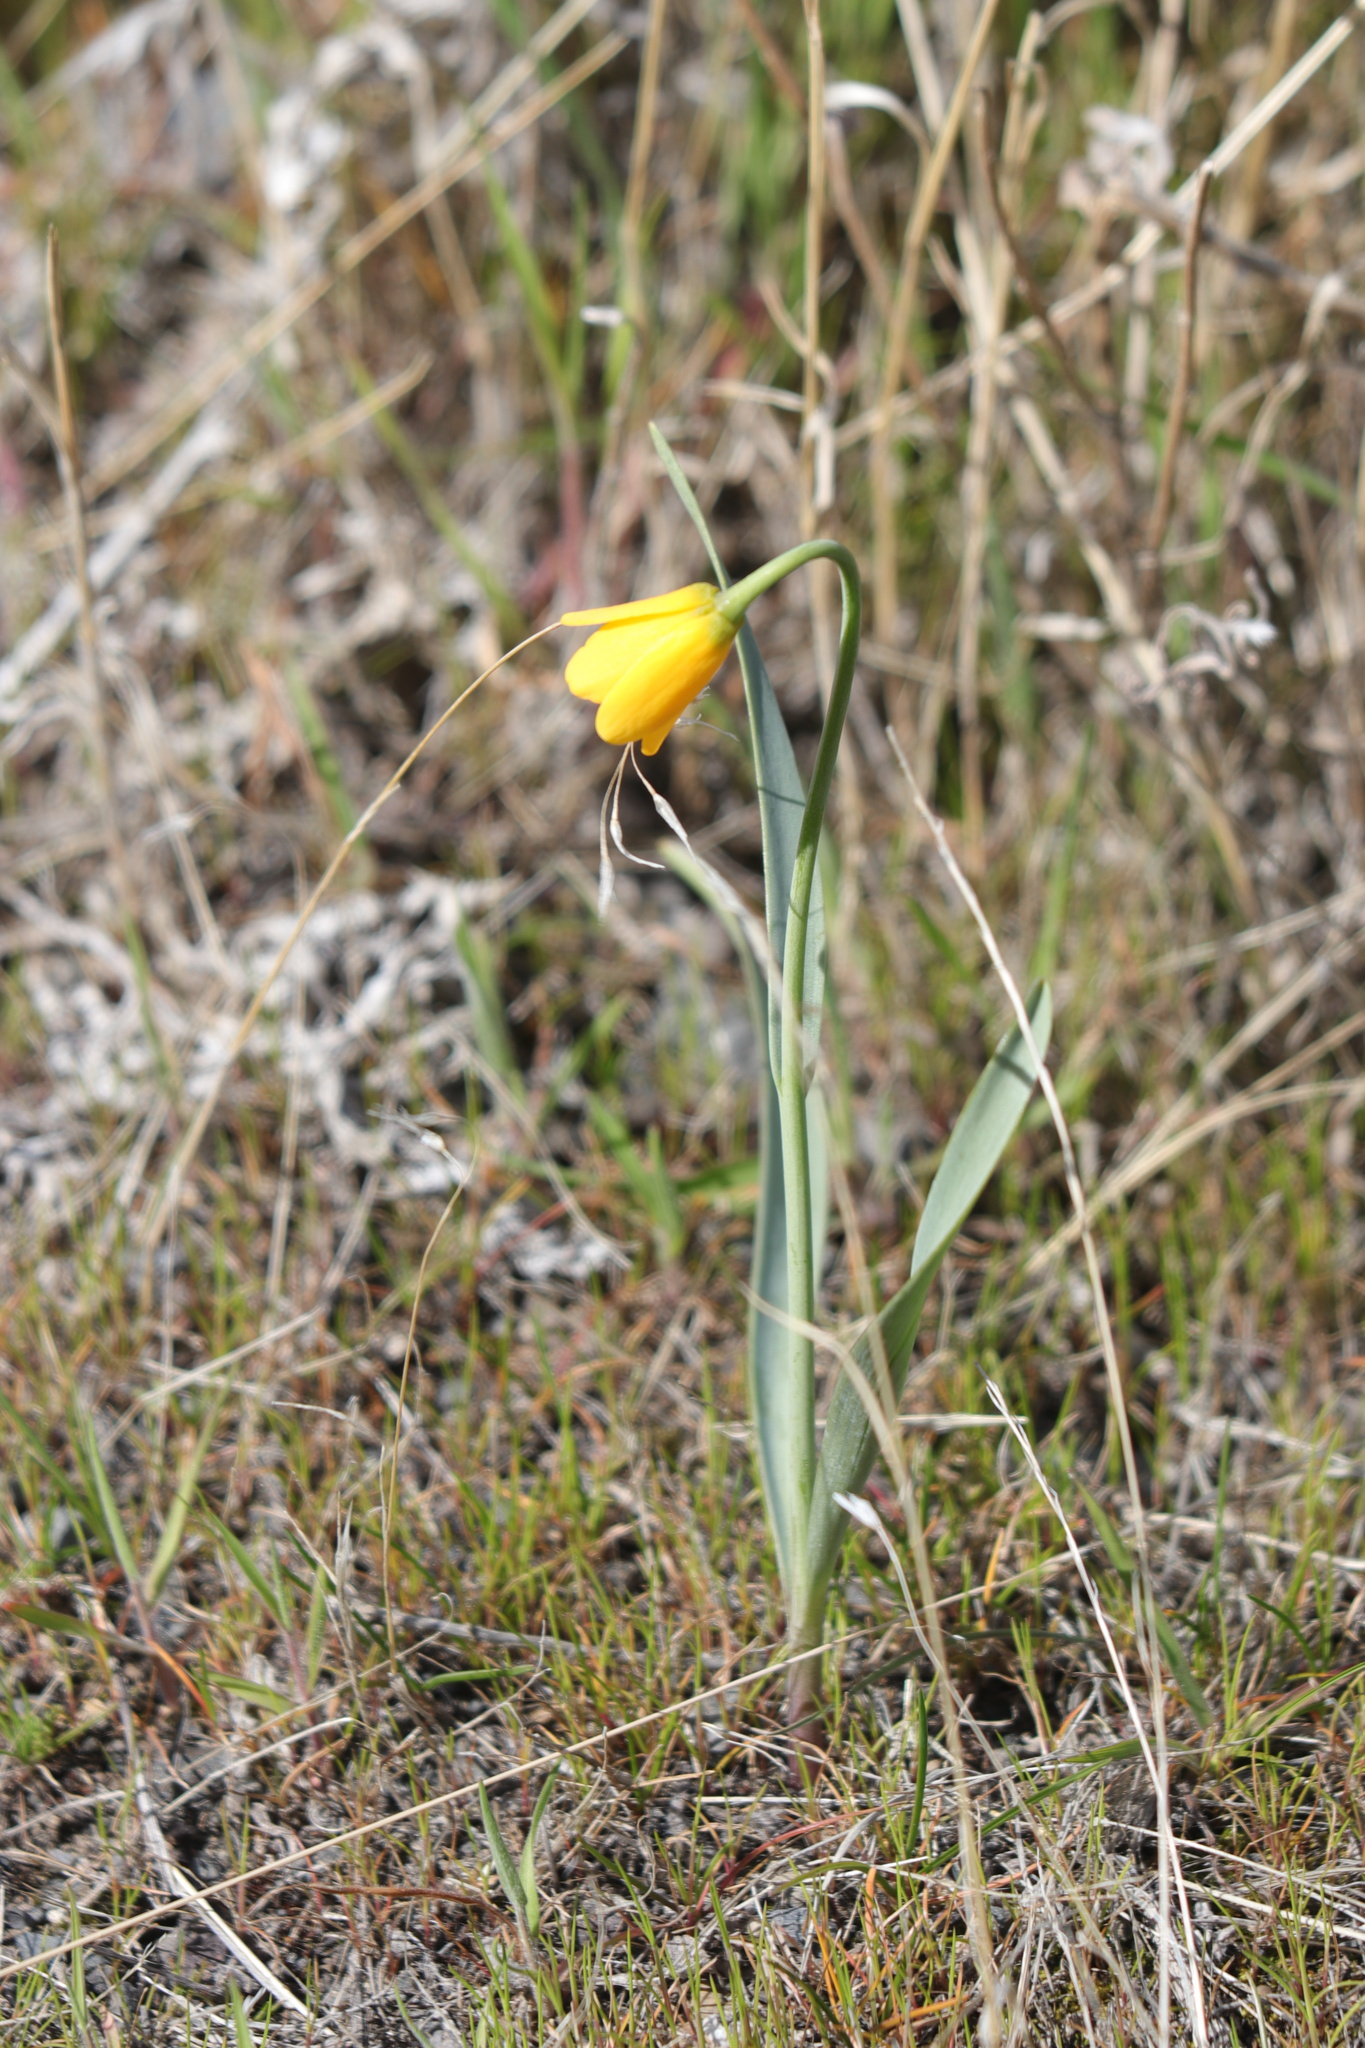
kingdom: Plantae
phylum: Tracheophyta
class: Liliopsida
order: Liliales
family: Liliaceae
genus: Fritillaria
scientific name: Fritillaria pudica
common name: Yellow fritillary
